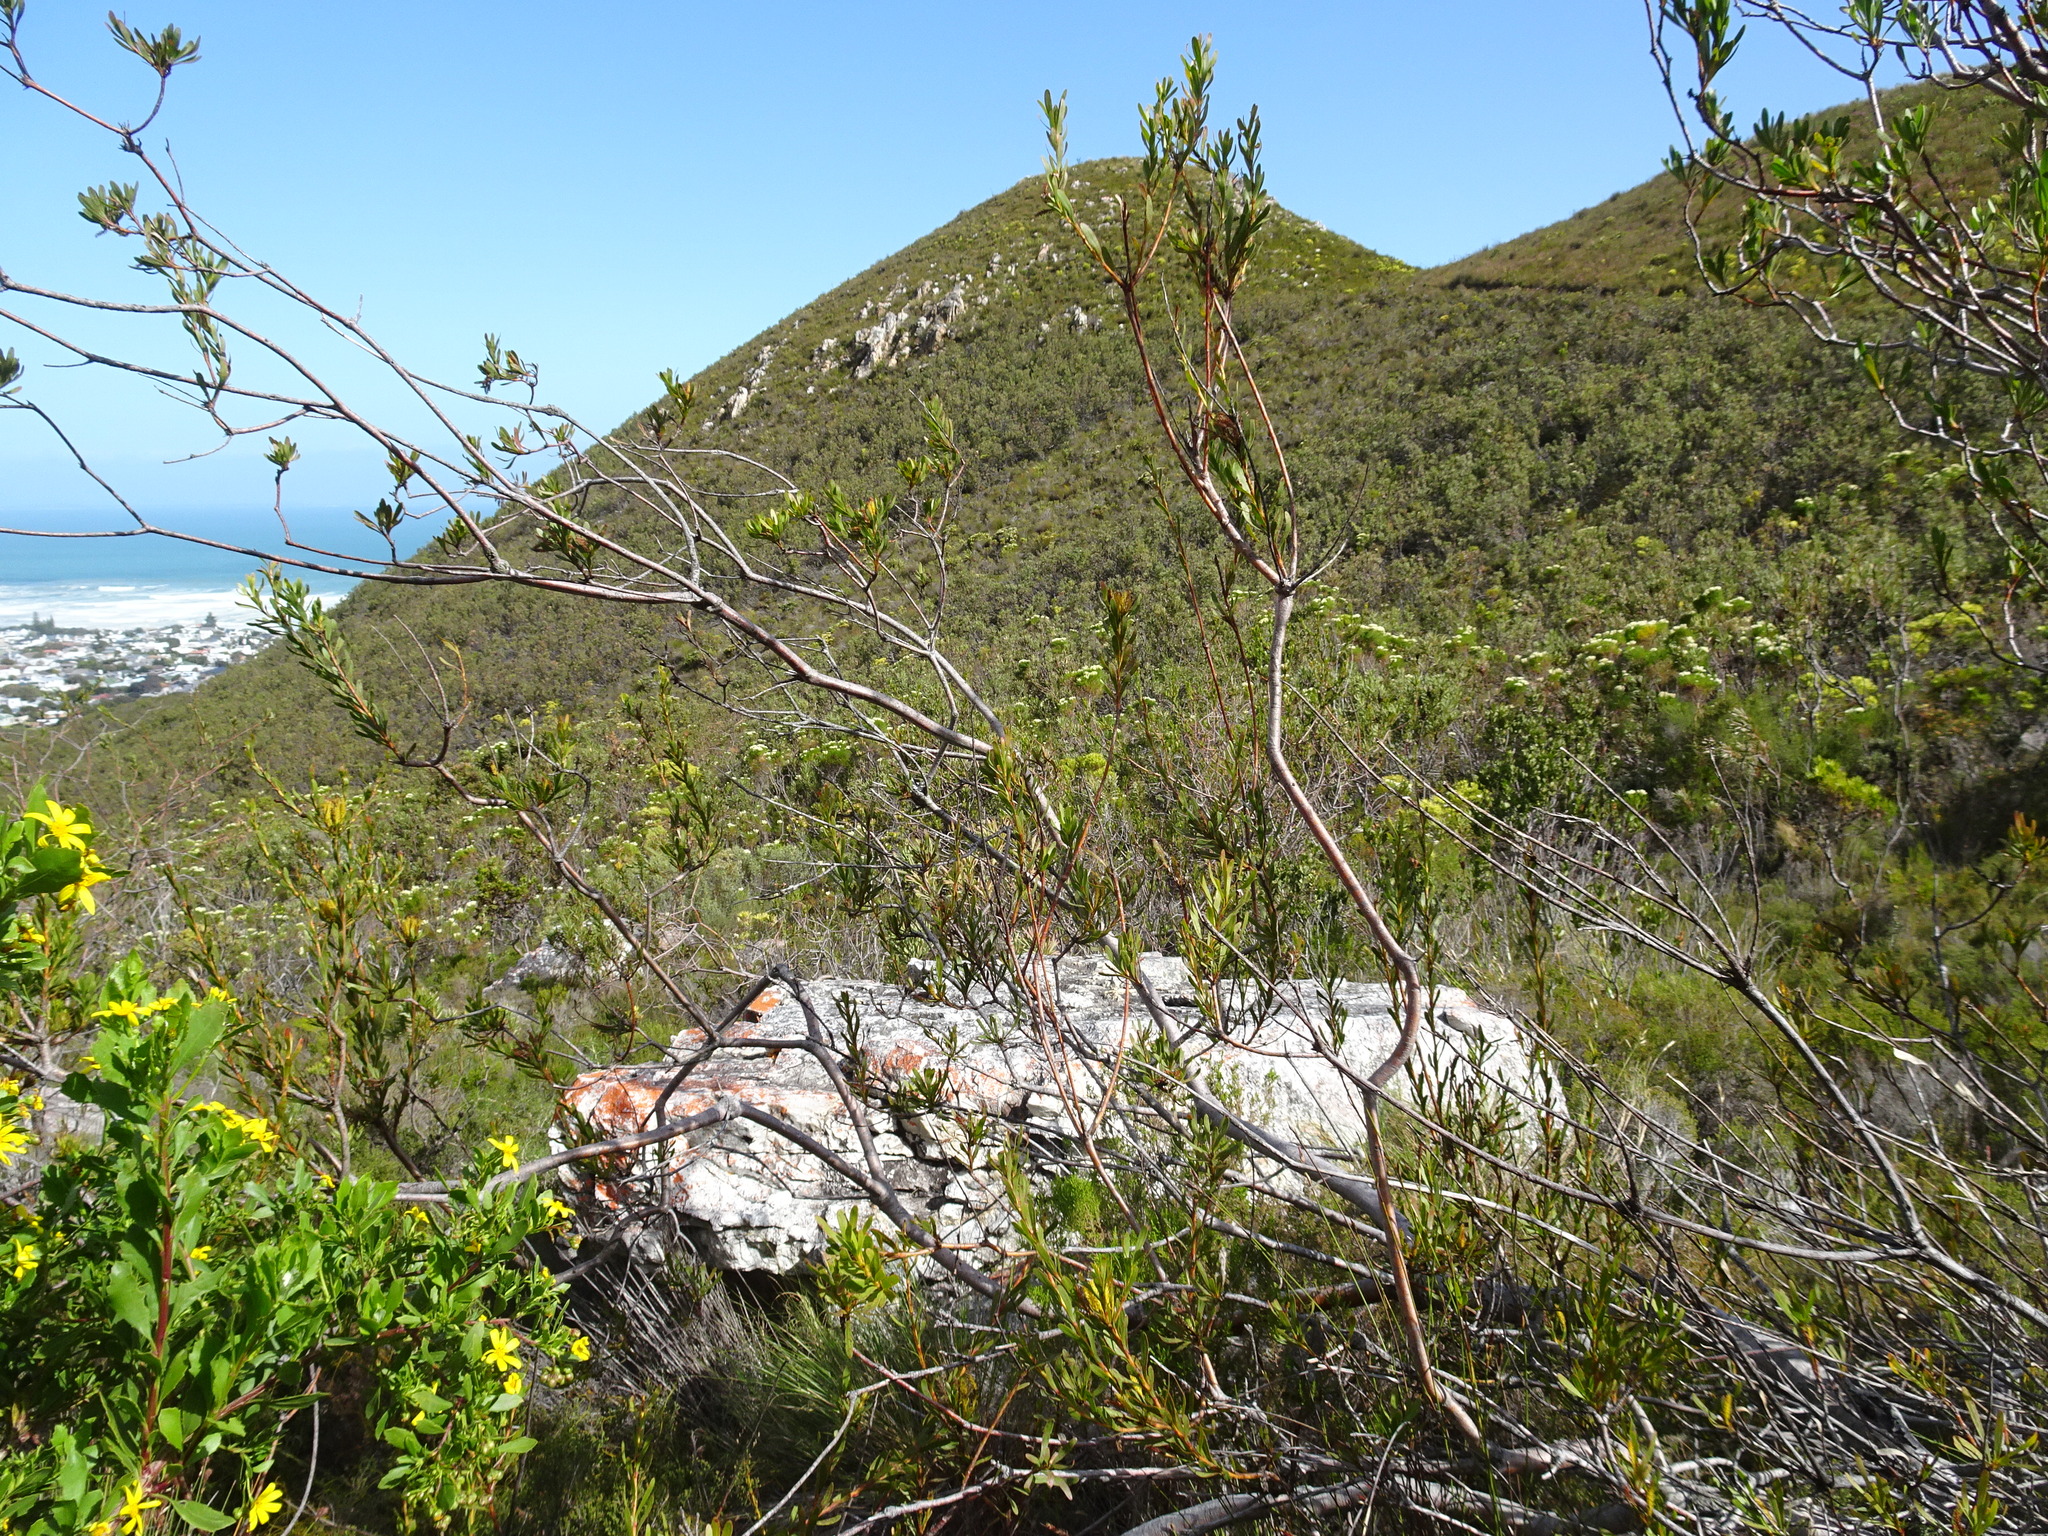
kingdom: Plantae
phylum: Tracheophyta
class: Magnoliopsida
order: Proteales
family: Proteaceae
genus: Aulax
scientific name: Aulax umbellata
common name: Broad-leaf featherbush
